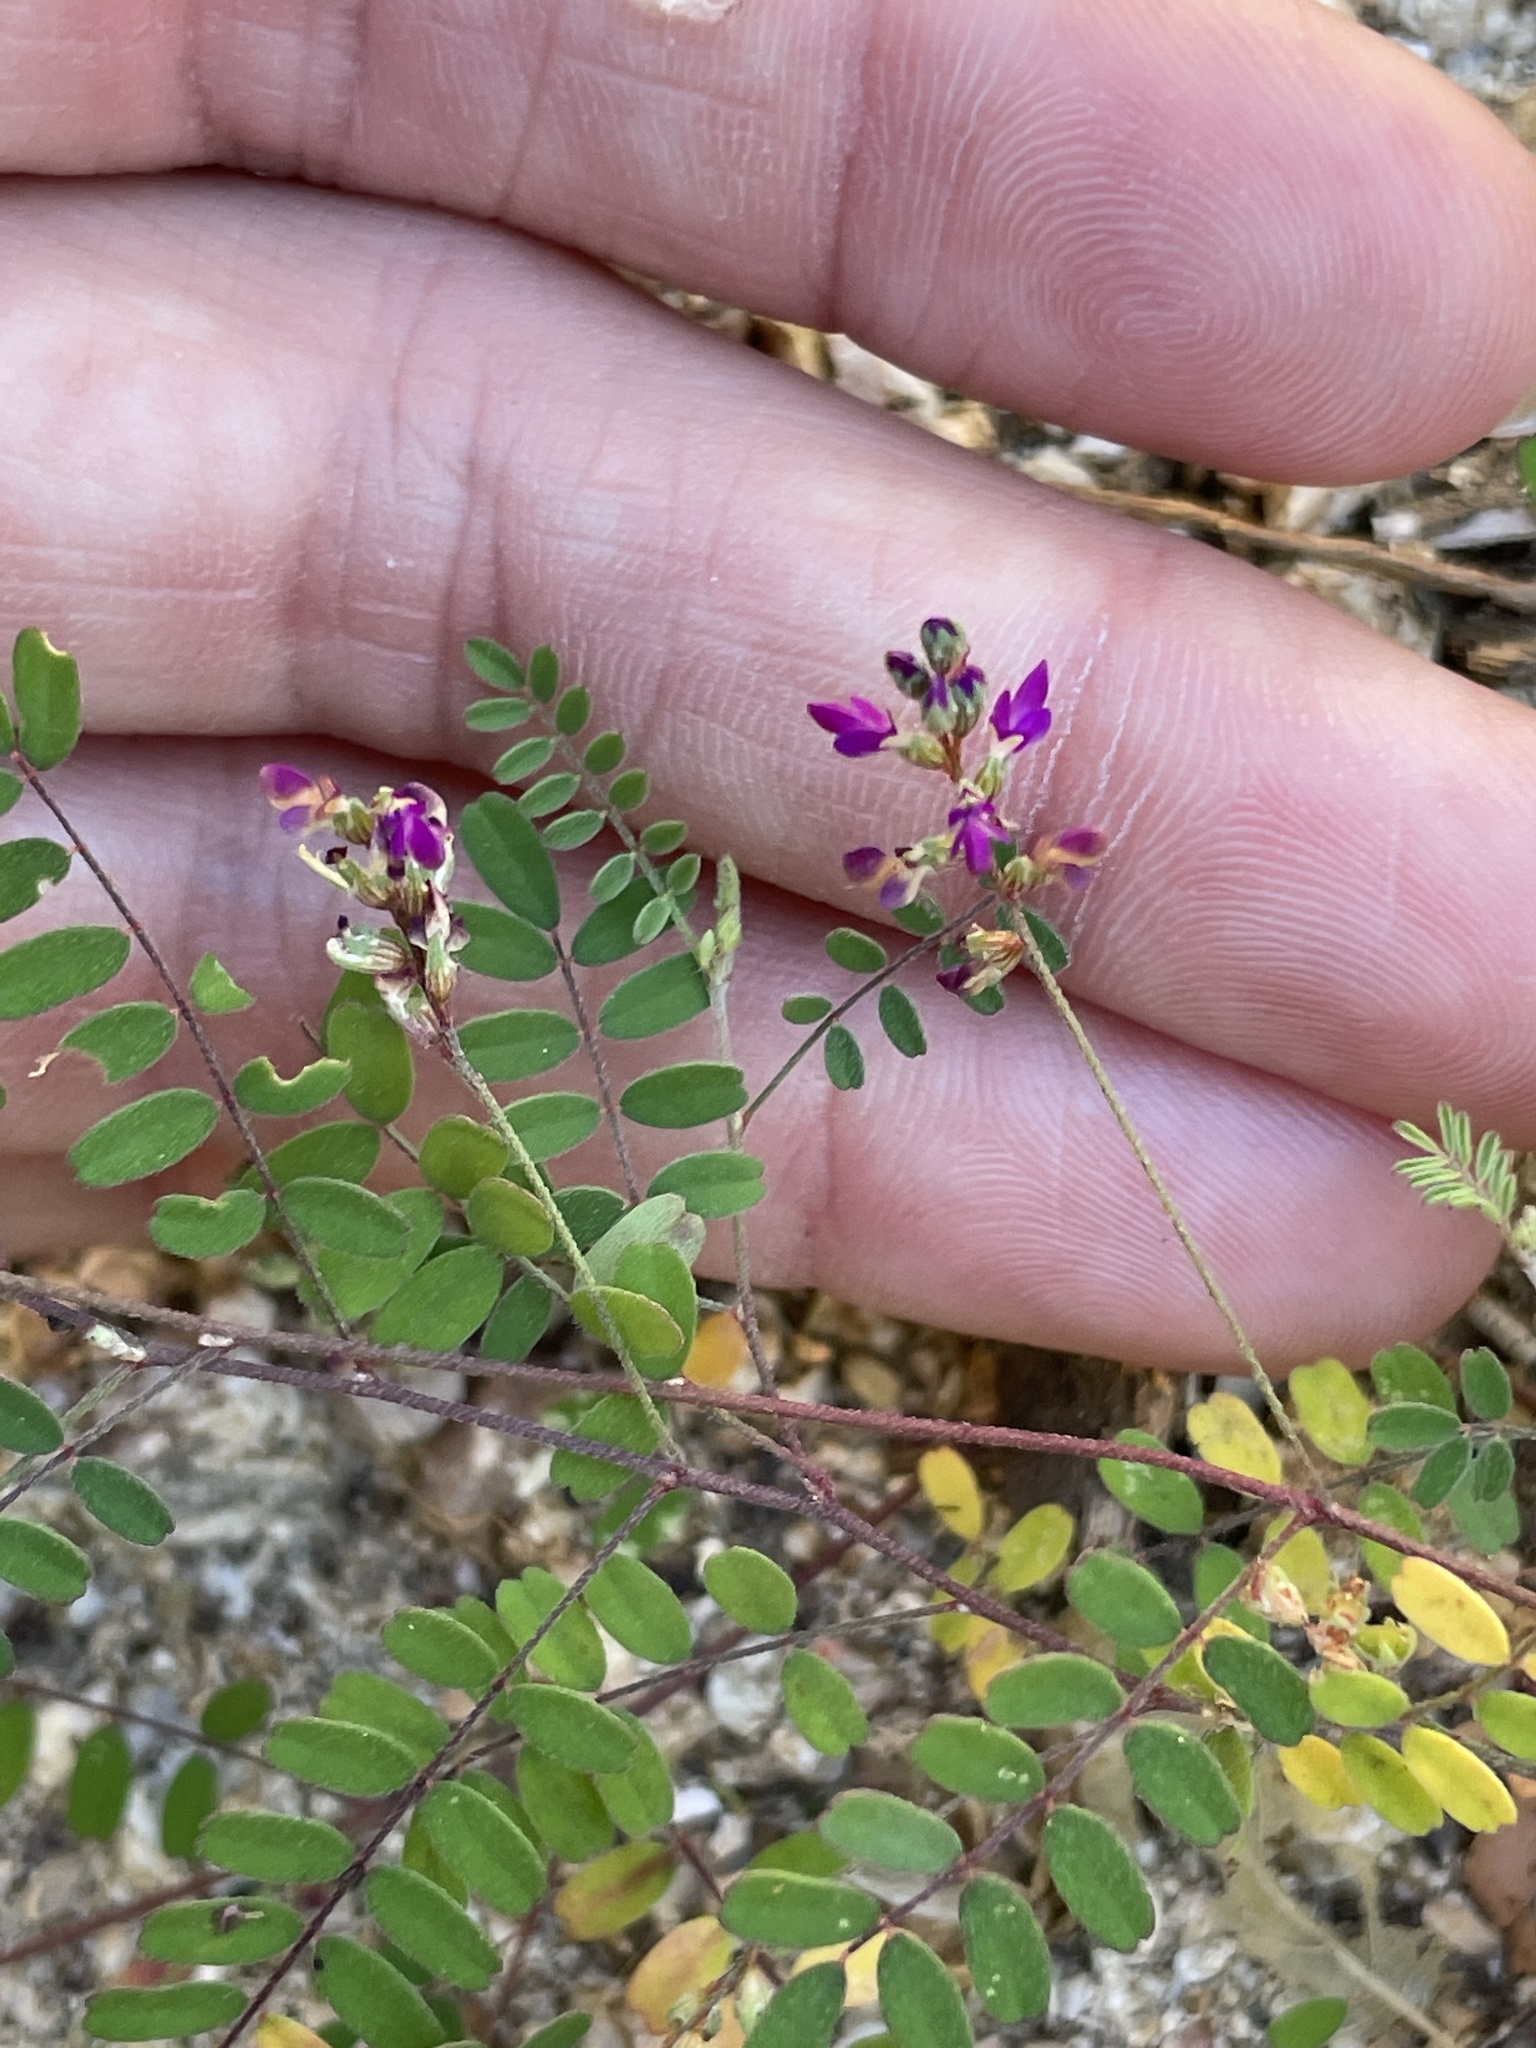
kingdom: Plantae
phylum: Tracheophyta
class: Magnoliopsida
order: Fabales
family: Fabaceae
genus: Marina
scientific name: Marina interstes
